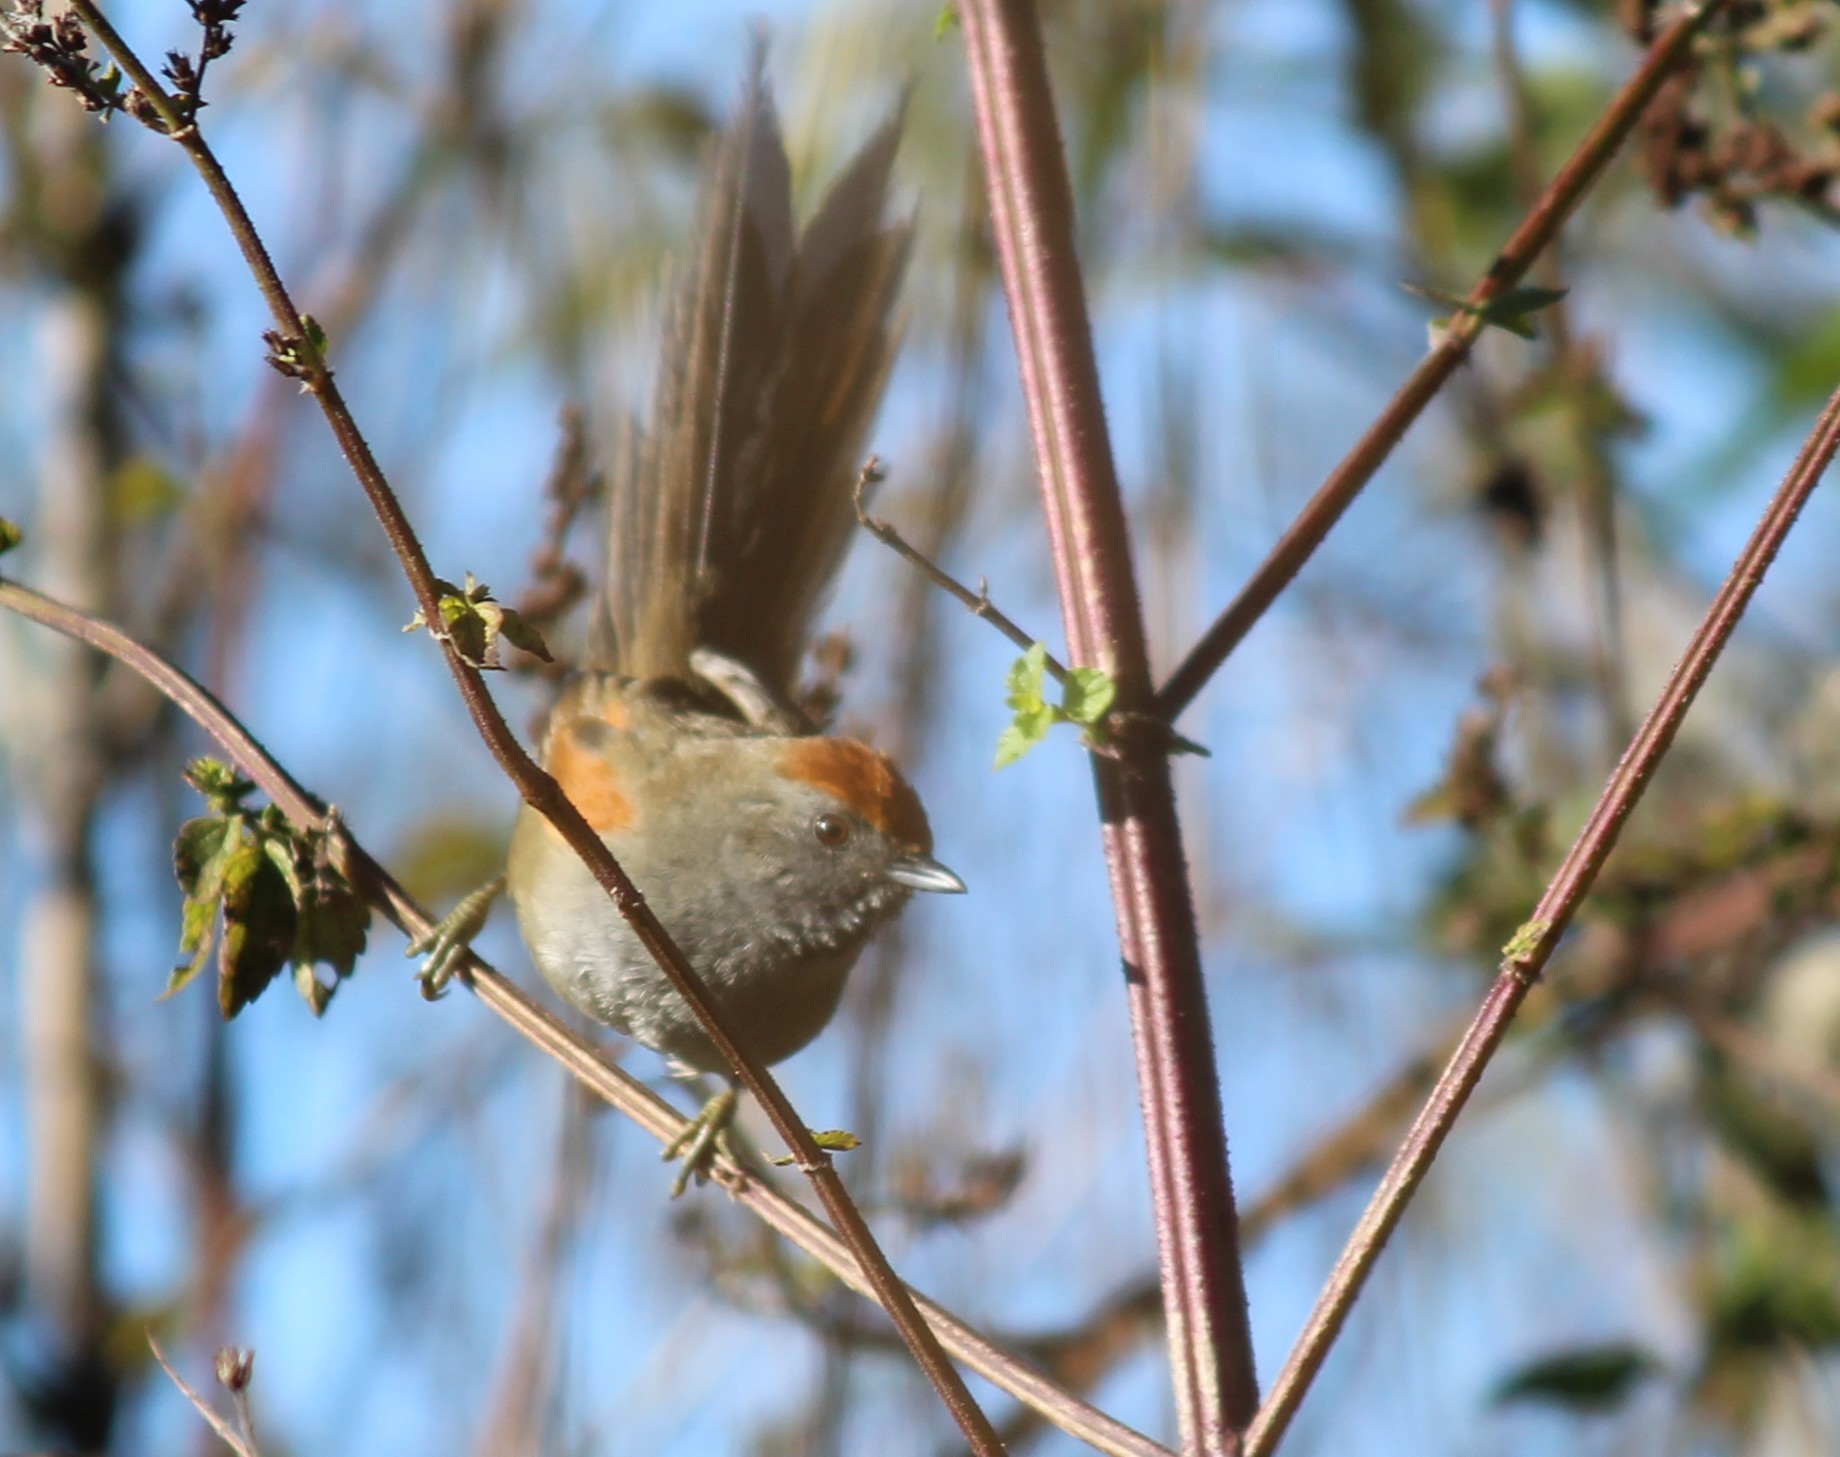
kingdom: Animalia
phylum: Chordata
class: Aves
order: Passeriformes
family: Furnariidae
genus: Synallaxis
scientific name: Synallaxis spixi
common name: Spix's spinetail
